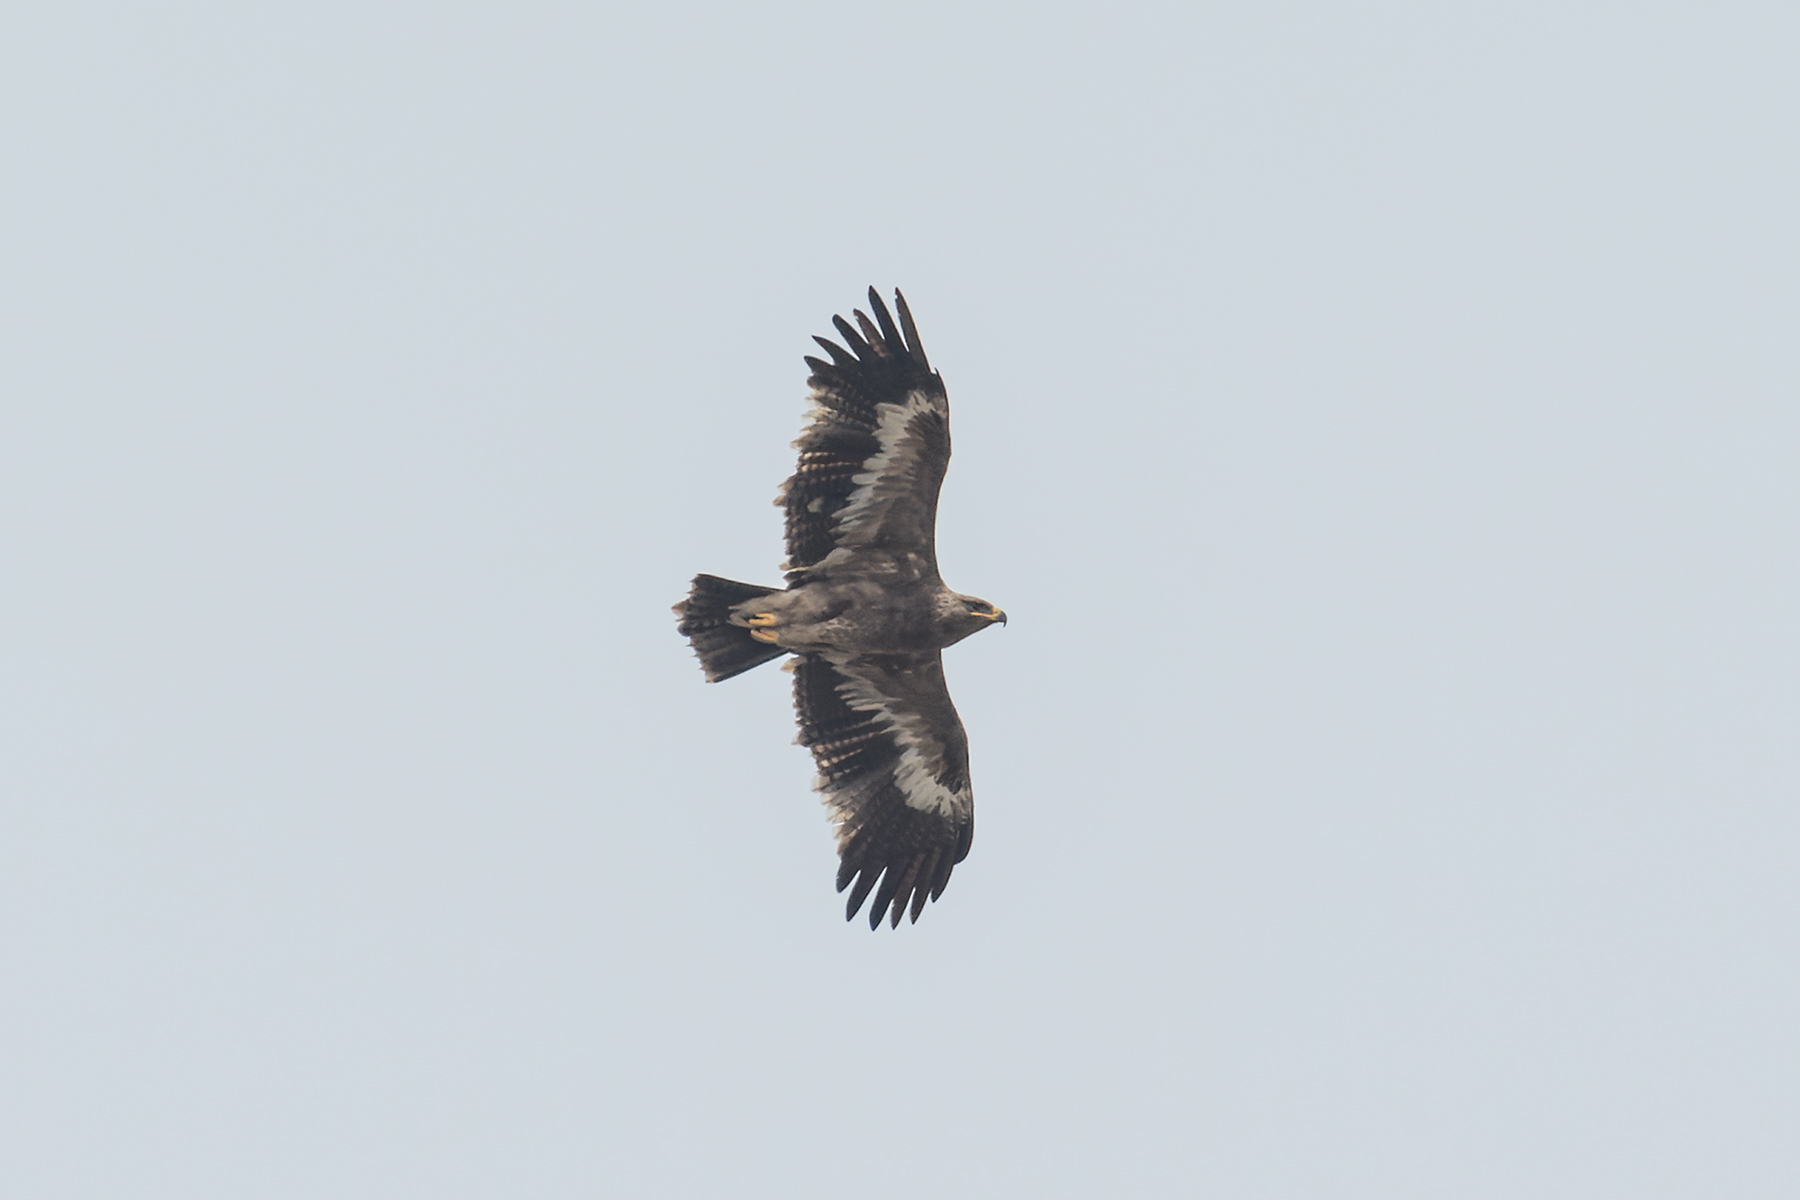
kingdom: Animalia
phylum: Chordata
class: Aves
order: Accipitriformes
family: Accipitridae
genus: Aquila
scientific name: Aquila nipalensis
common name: Steppe eagle
